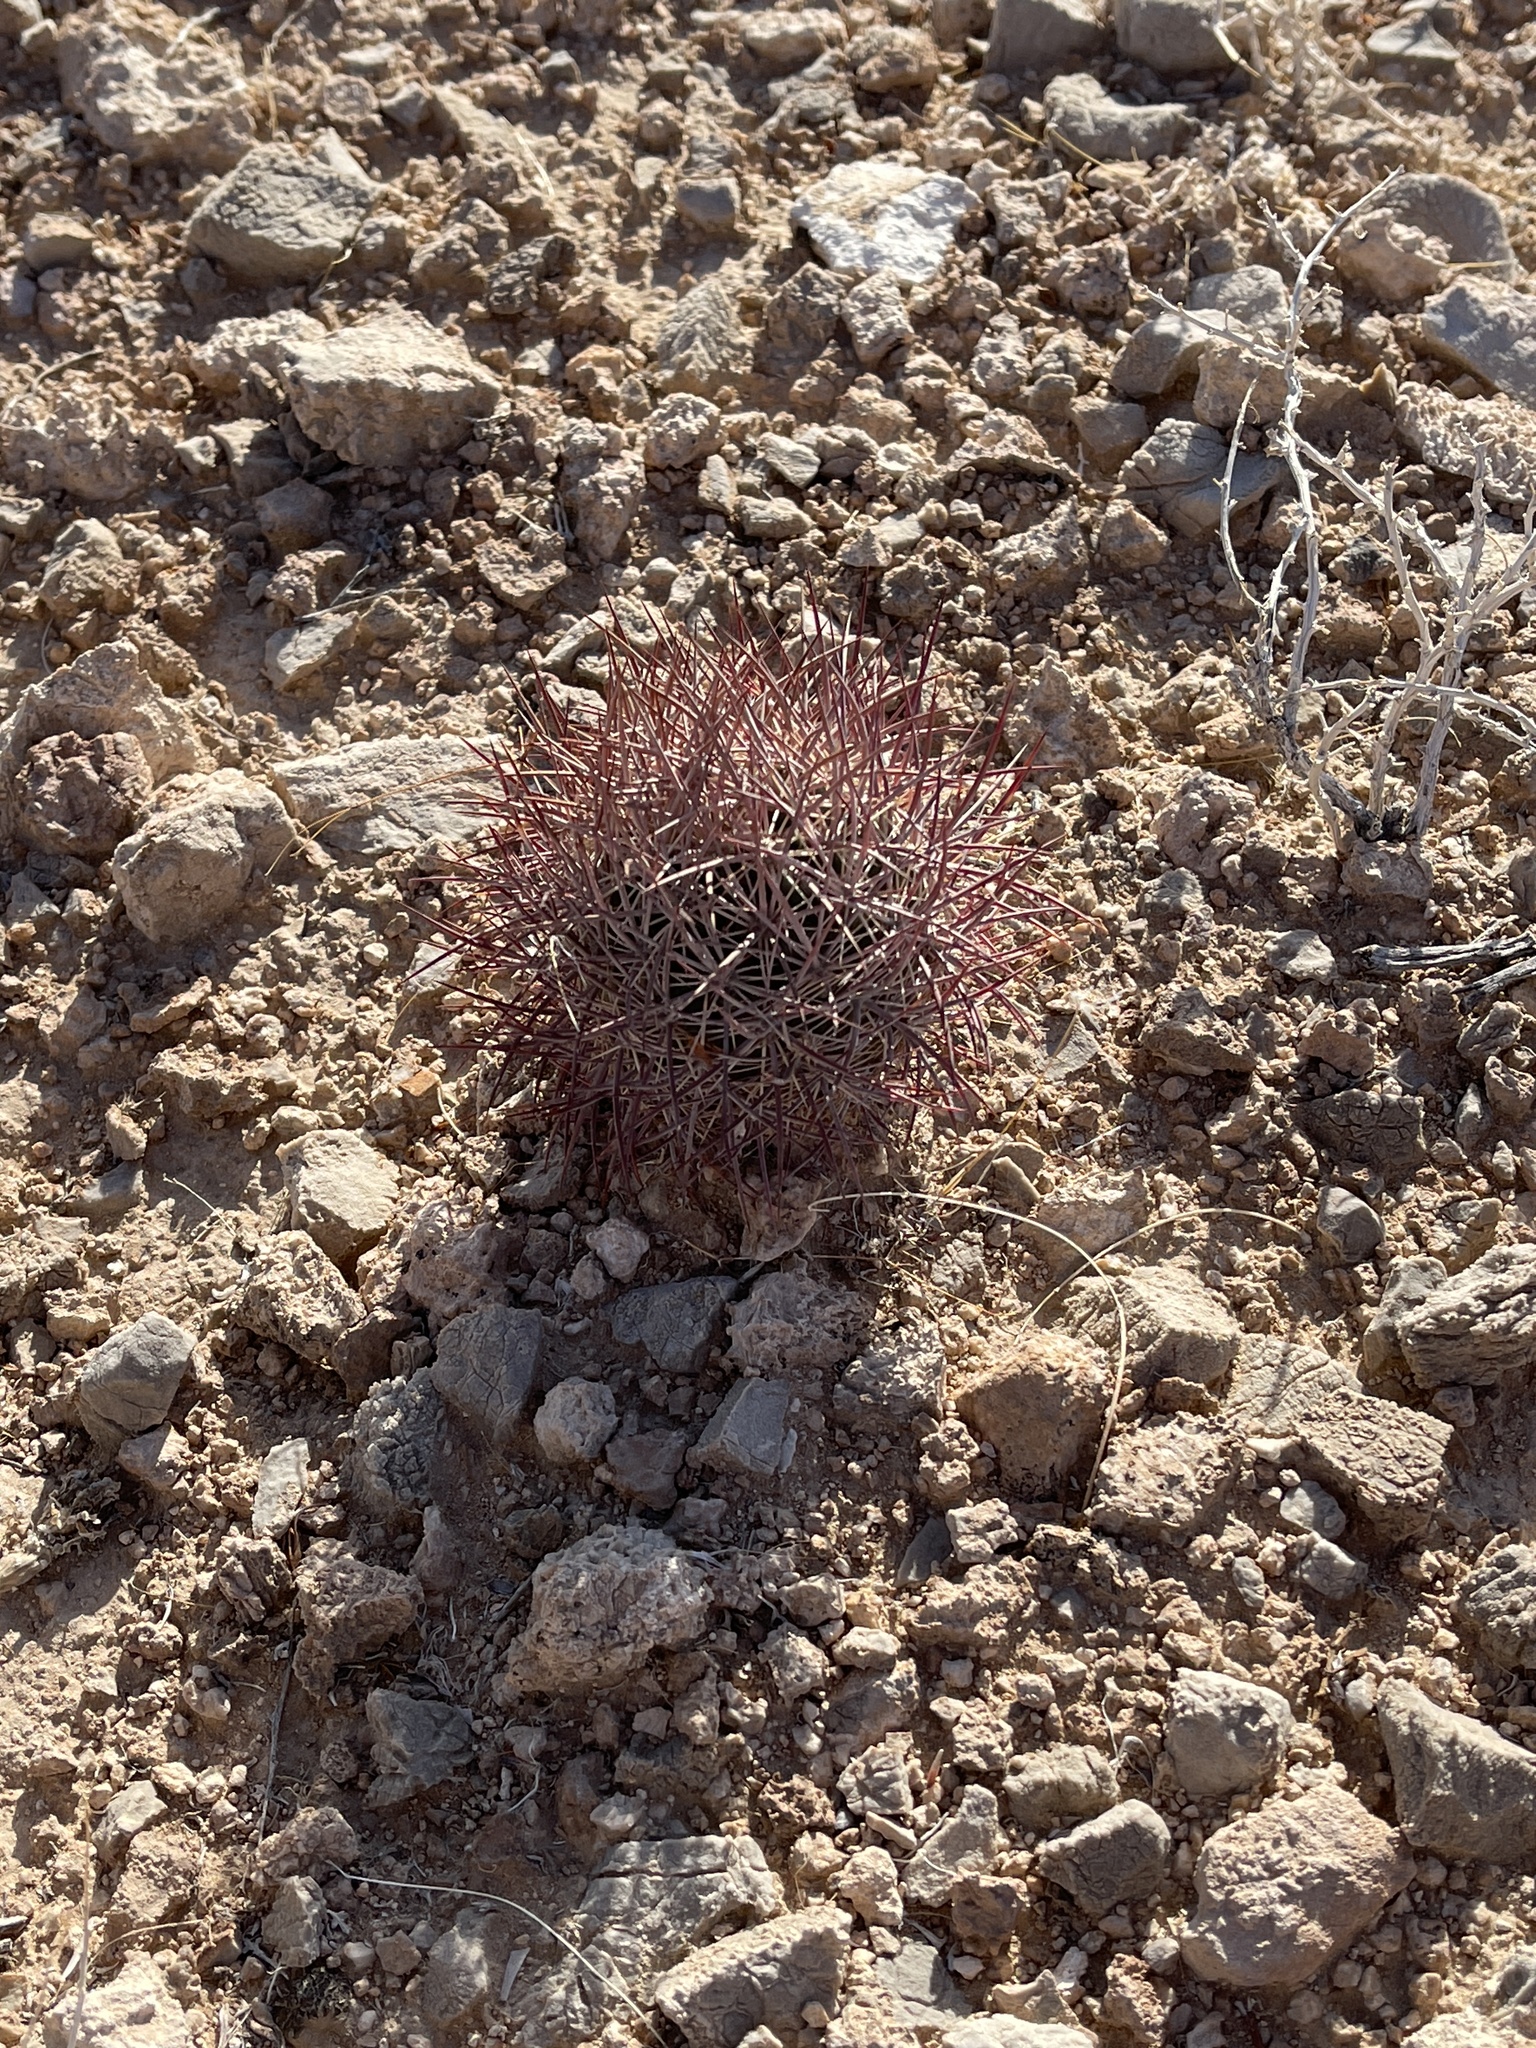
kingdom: Plantae
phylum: Tracheophyta
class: Magnoliopsida
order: Caryophyllales
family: Cactaceae
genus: Sclerocactus
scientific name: Sclerocactus johnsonii
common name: Eight-spine fishhook cactus
